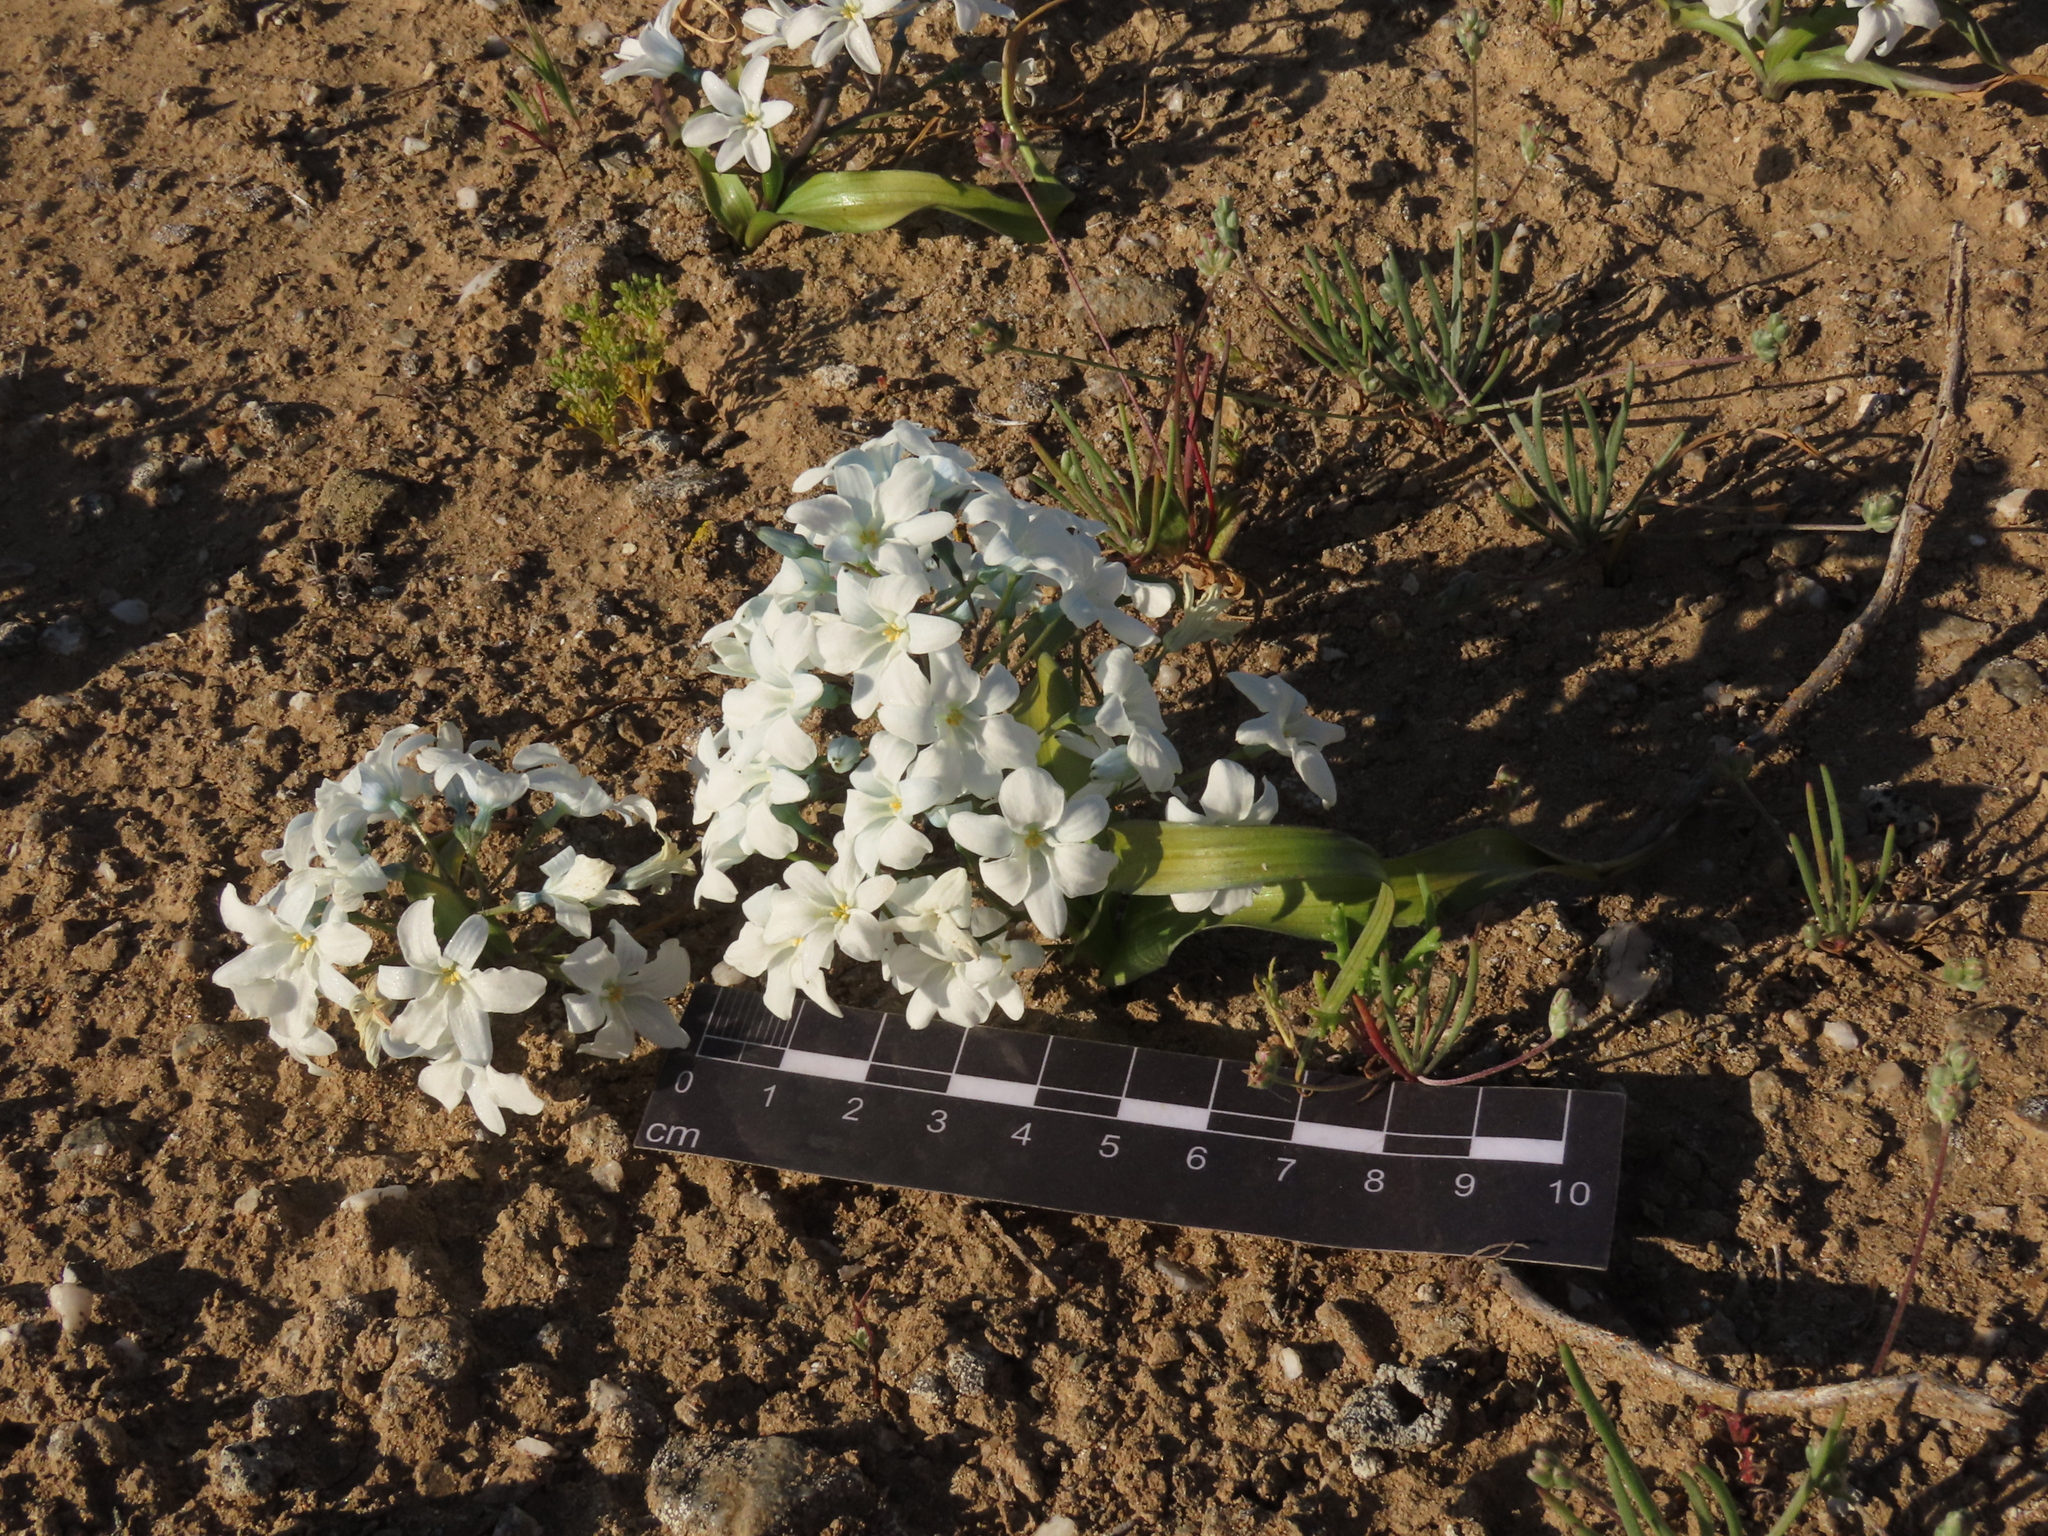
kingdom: Plantae
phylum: Tracheophyta
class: Liliopsida
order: Asparagales
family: Tecophilaeaceae
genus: Zephyra
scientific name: Zephyra compacta
